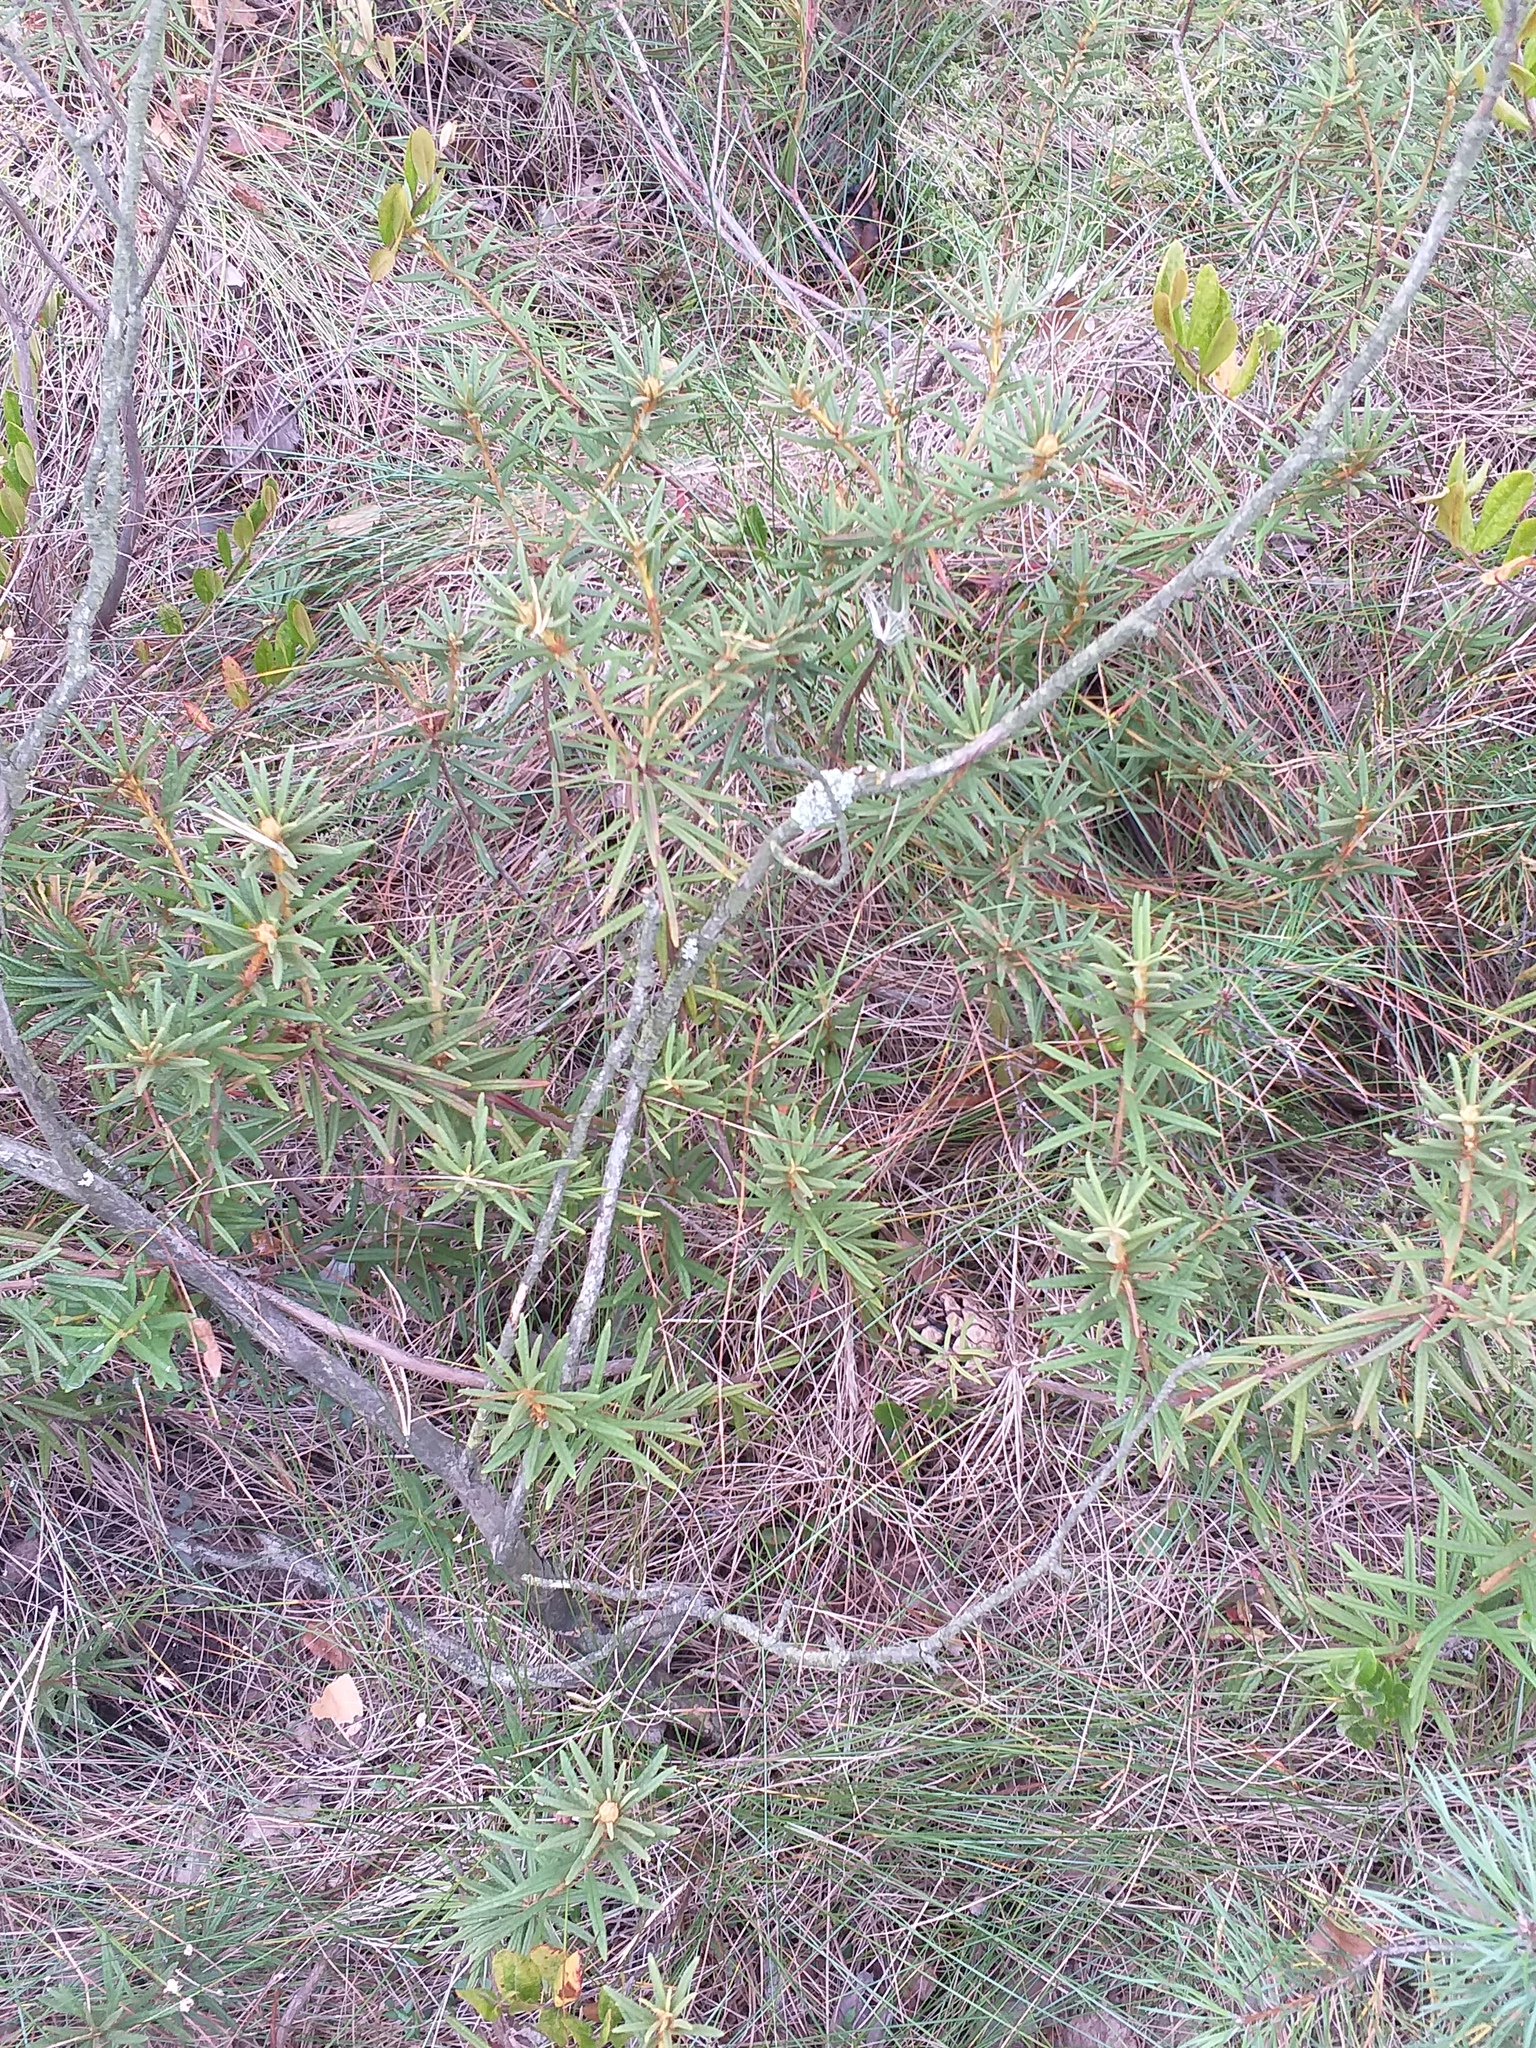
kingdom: Plantae
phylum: Tracheophyta
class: Magnoliopsida
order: Ericales
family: Ericaceae
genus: Rhododendron
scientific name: Rhododendron tomentosum
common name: Marsh labrador tea
